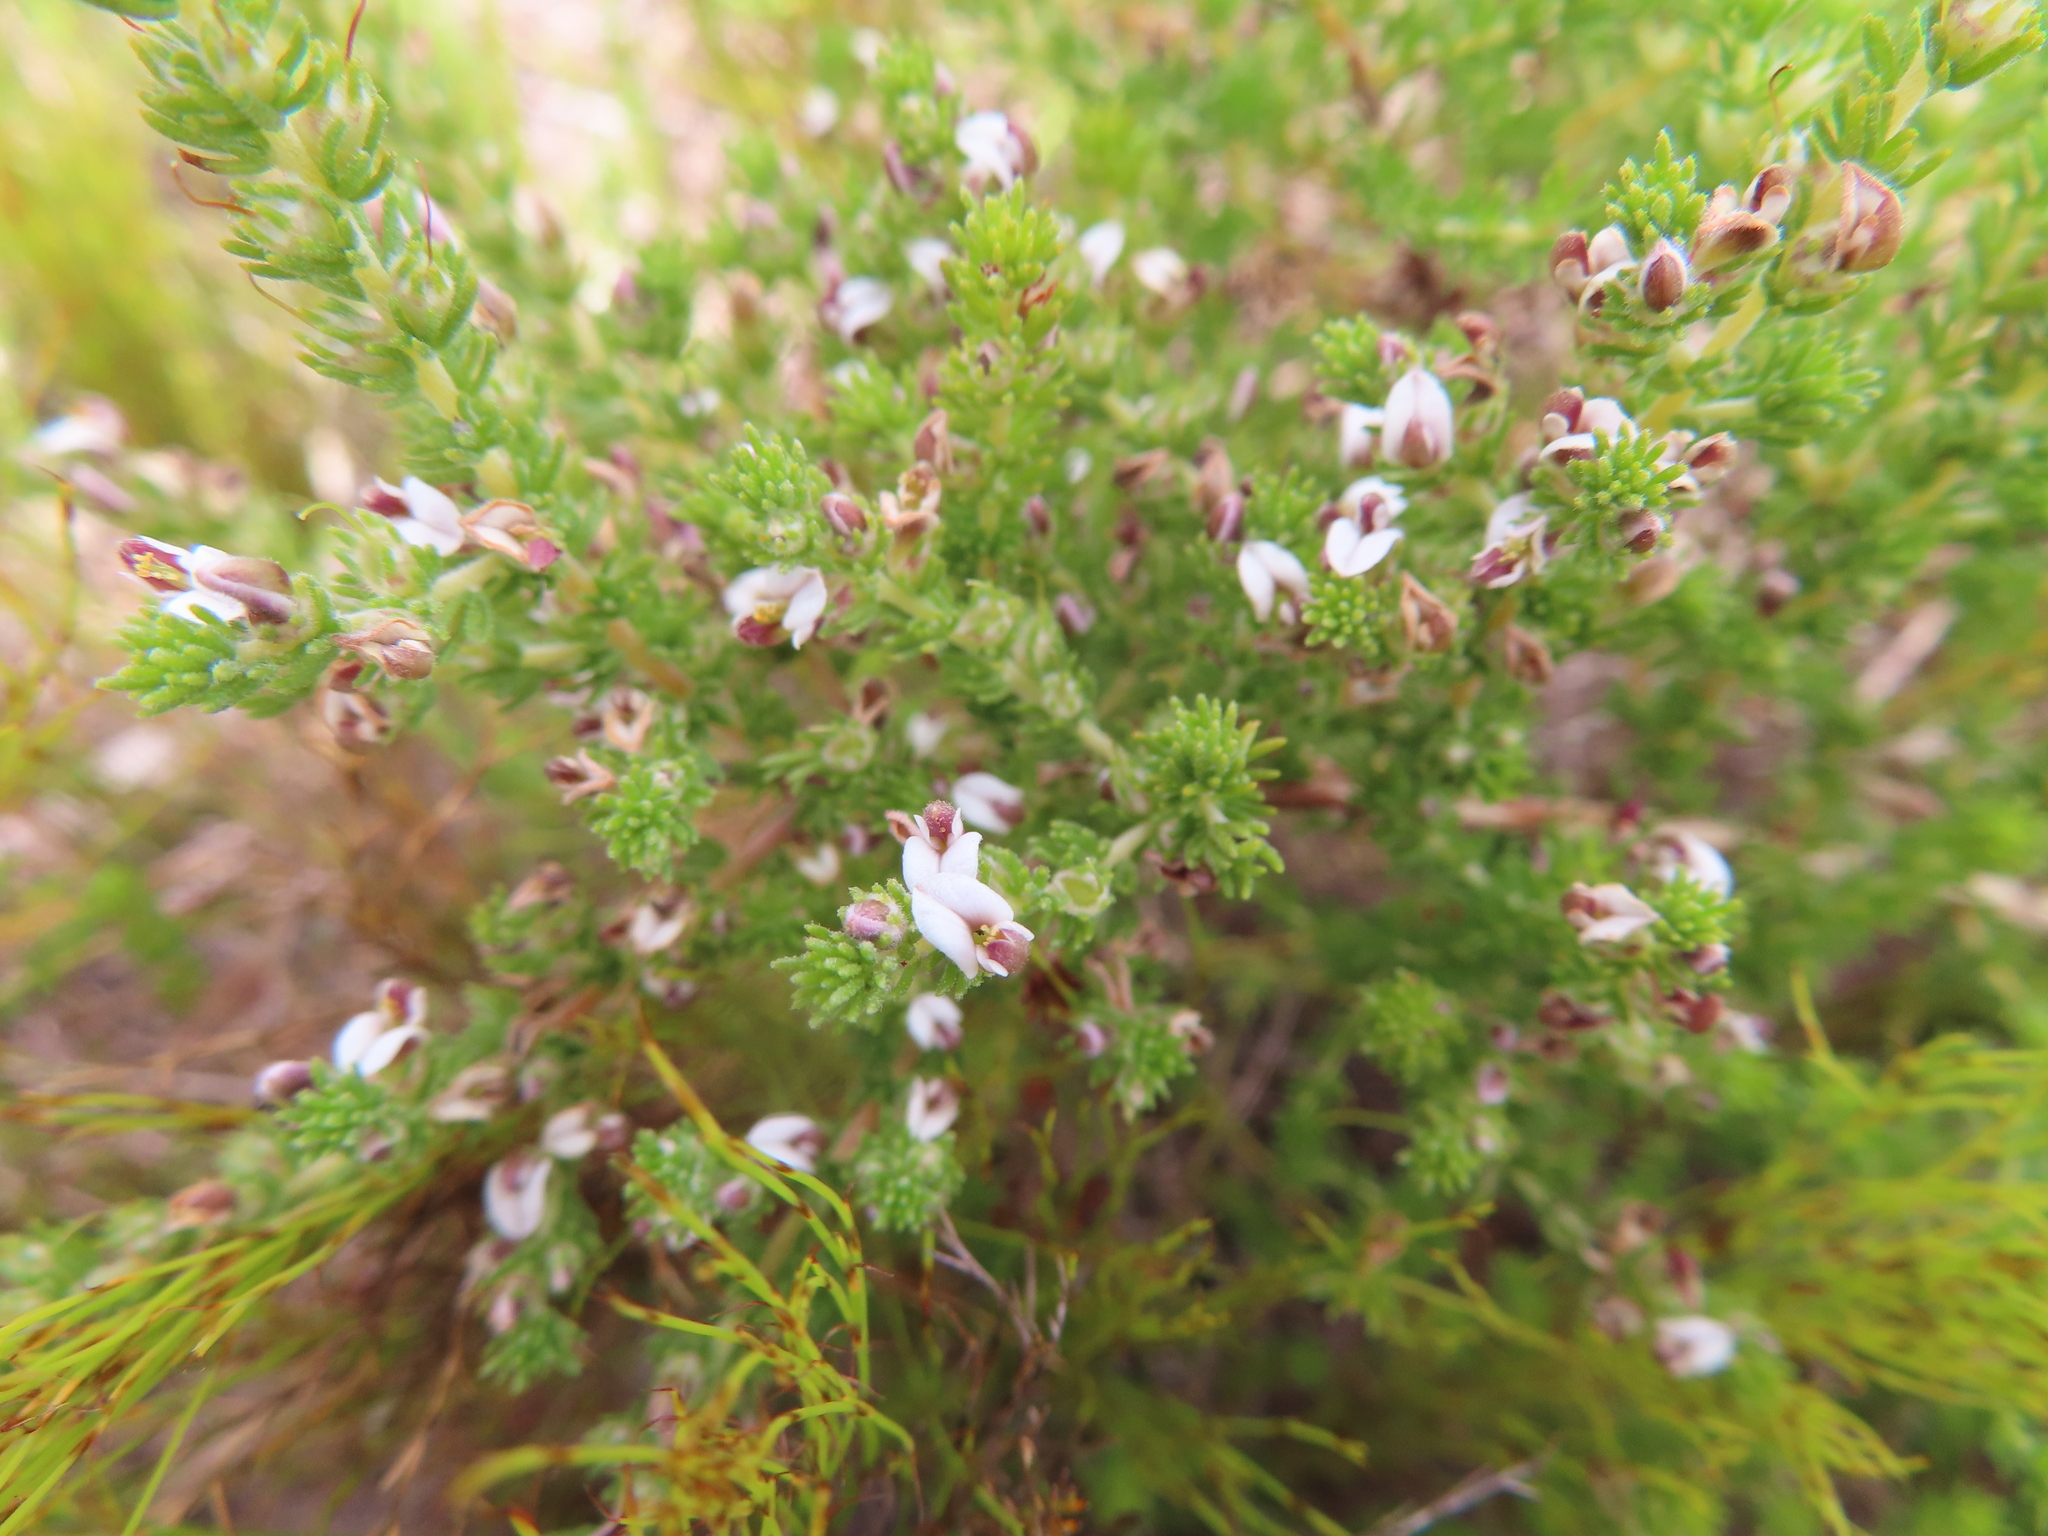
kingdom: Plantae
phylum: Tracheophyta
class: Magnoliopsida
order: Fabales
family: Fabaceae
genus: Aspalathus
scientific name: Aspalathus hispida
